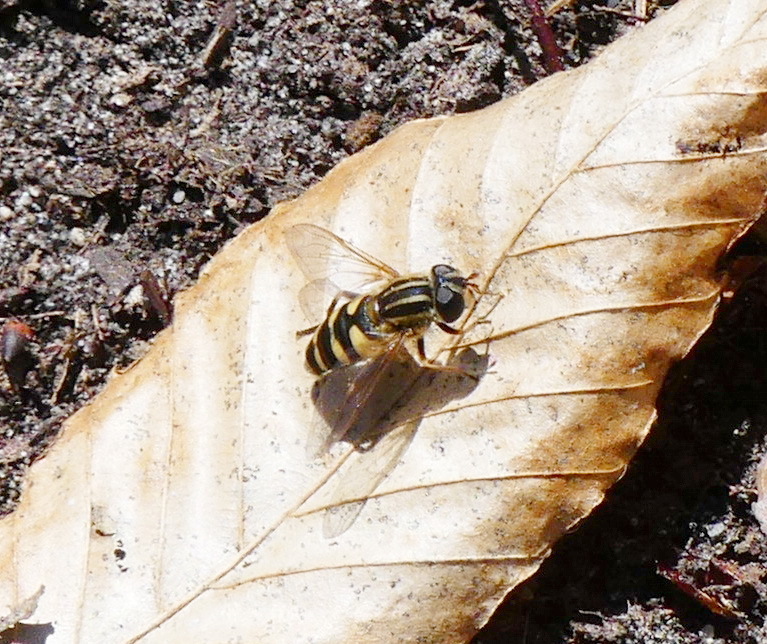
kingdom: Animalia
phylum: Arthropoda
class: Insecta
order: Diptera
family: Syrphidae
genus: Helophilus
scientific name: Helophilus fasciatus
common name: Narrow-headed marsh fly
